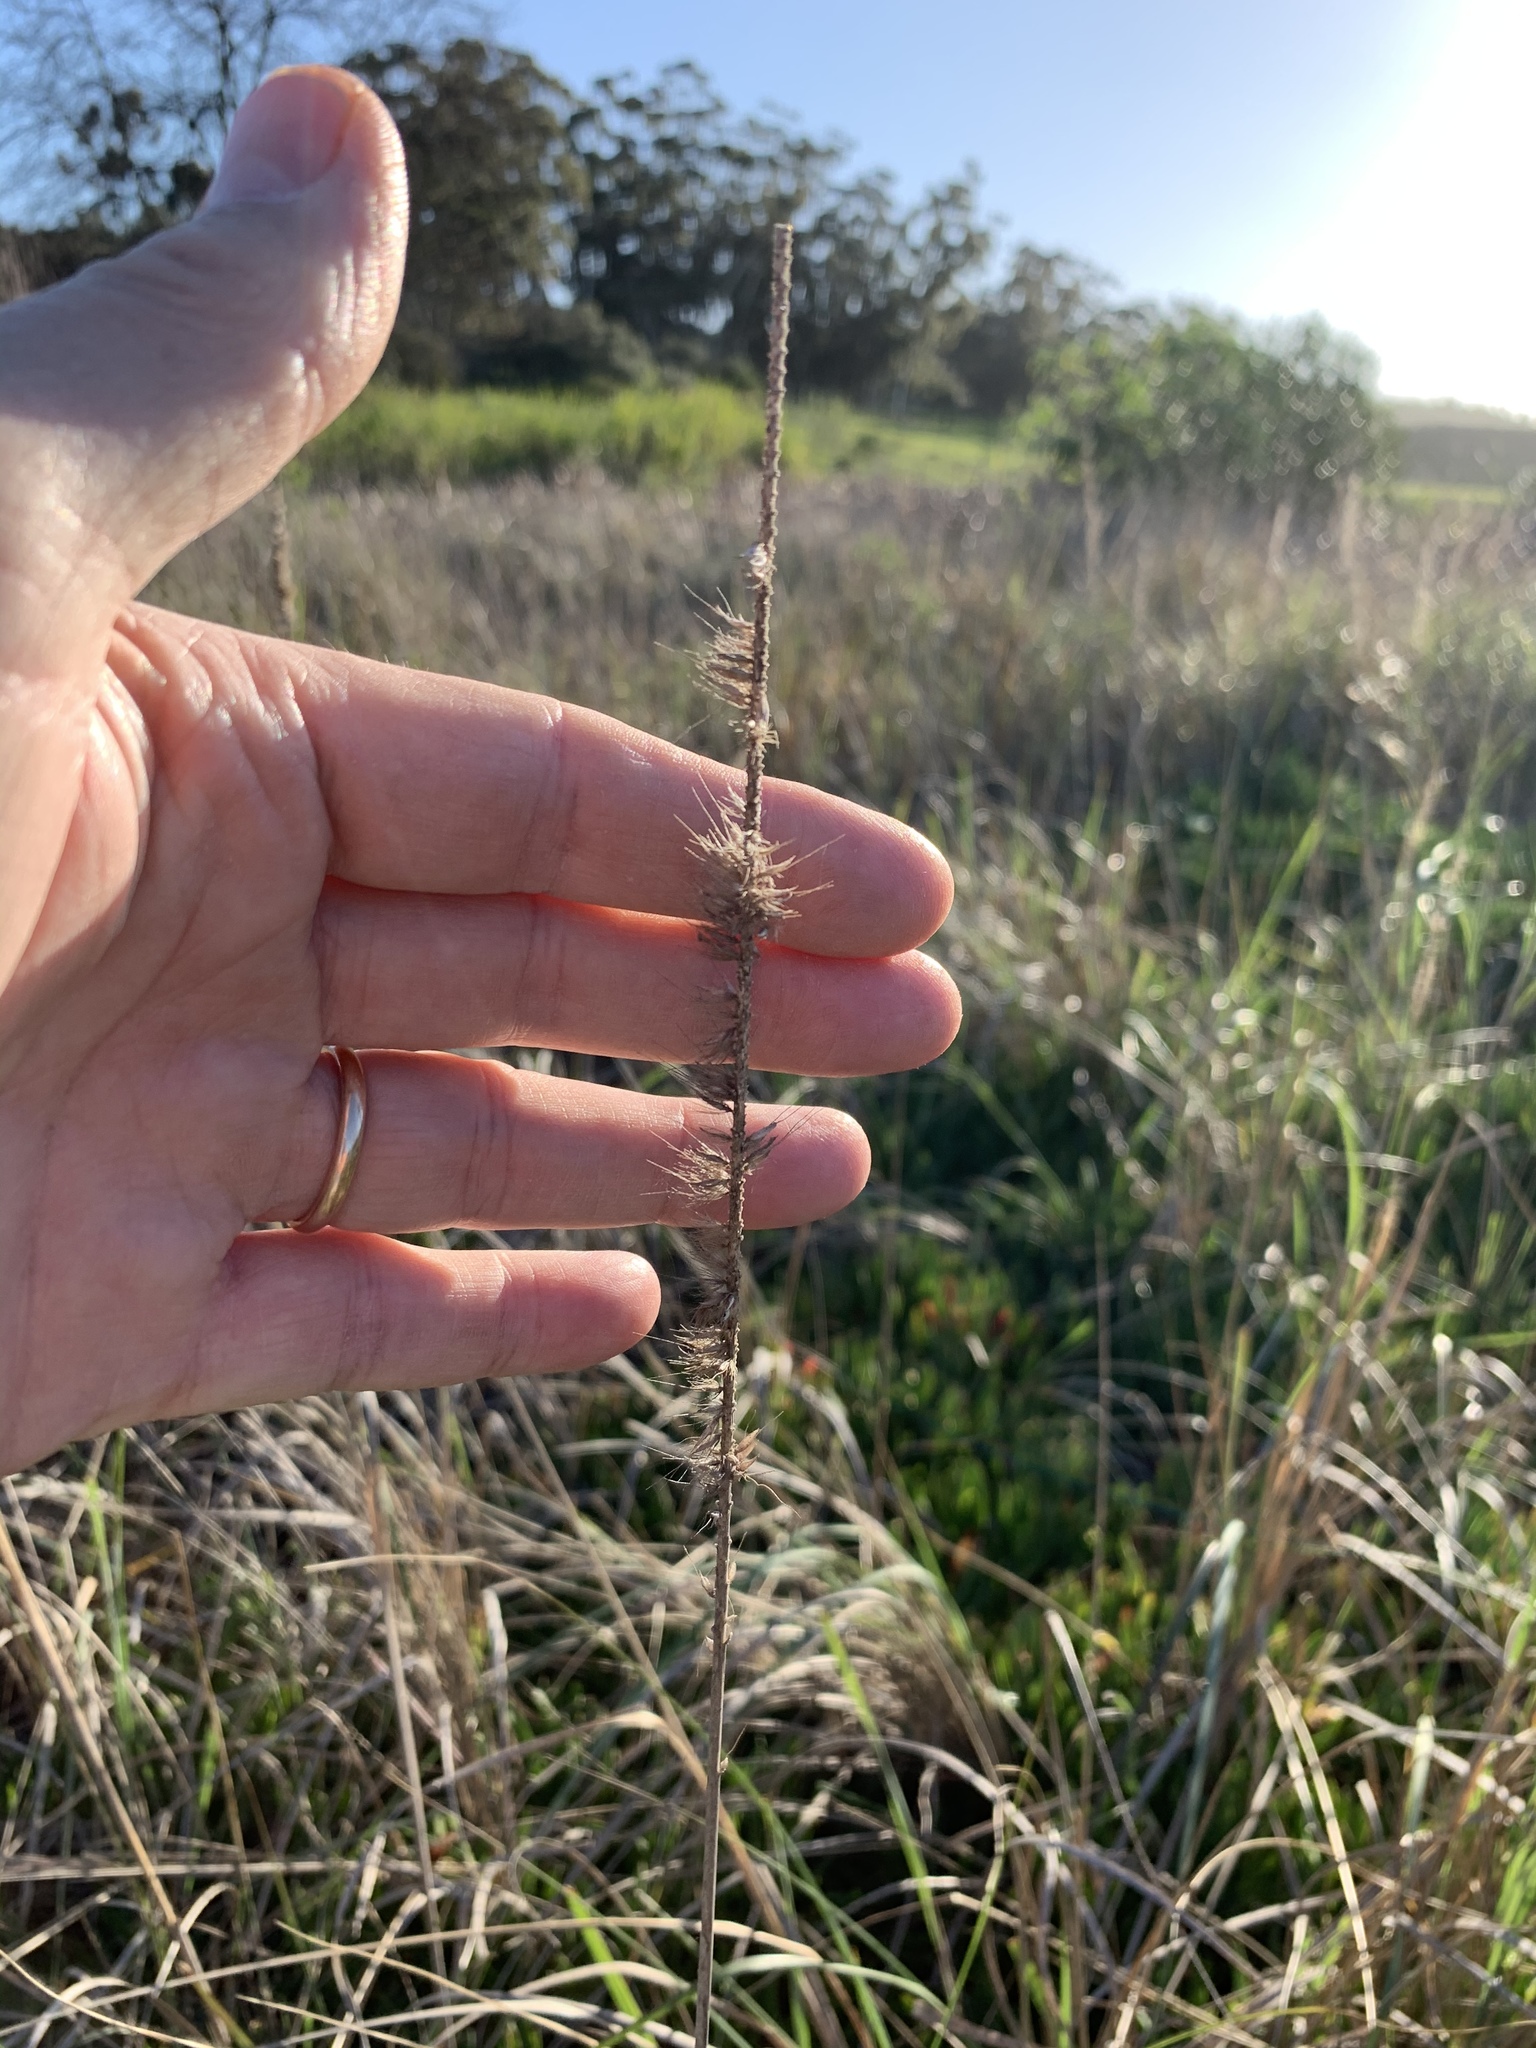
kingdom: Plantae
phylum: Tracheophyta
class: Liliopsida
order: Poales
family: Poaceae
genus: Cenchrus
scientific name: Cenchrus caudatus
